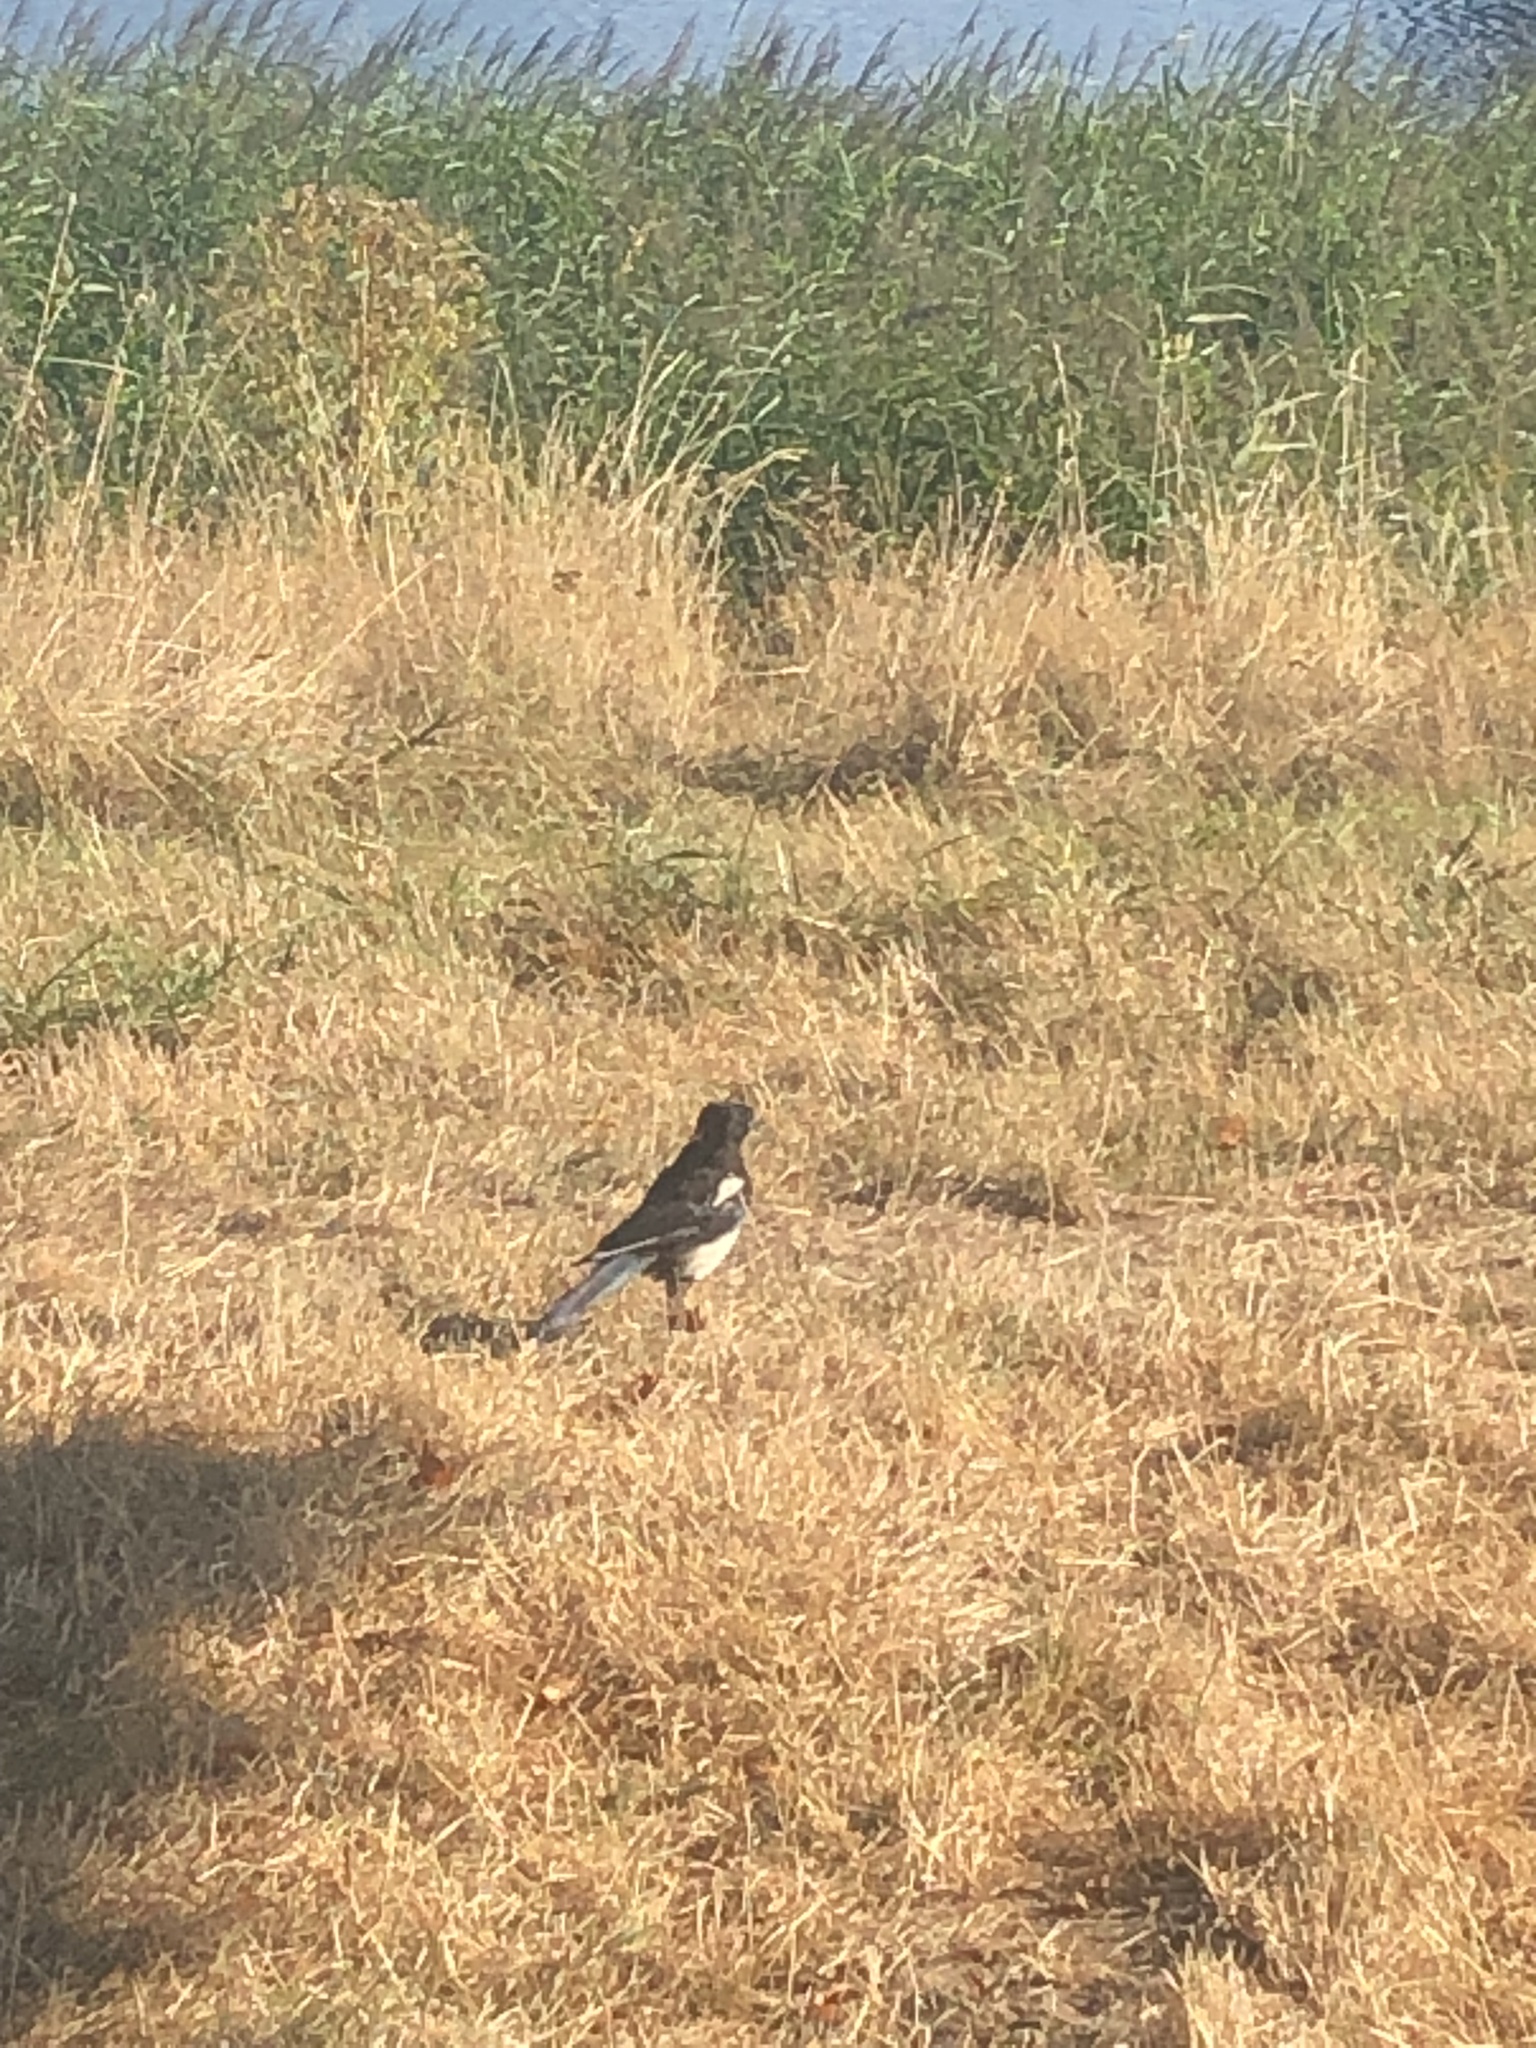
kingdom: Animalia
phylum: Chordata
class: Aves
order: Passeriformes
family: Corvidae
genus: Pica
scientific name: Pica pica
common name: Eurasian magpie
